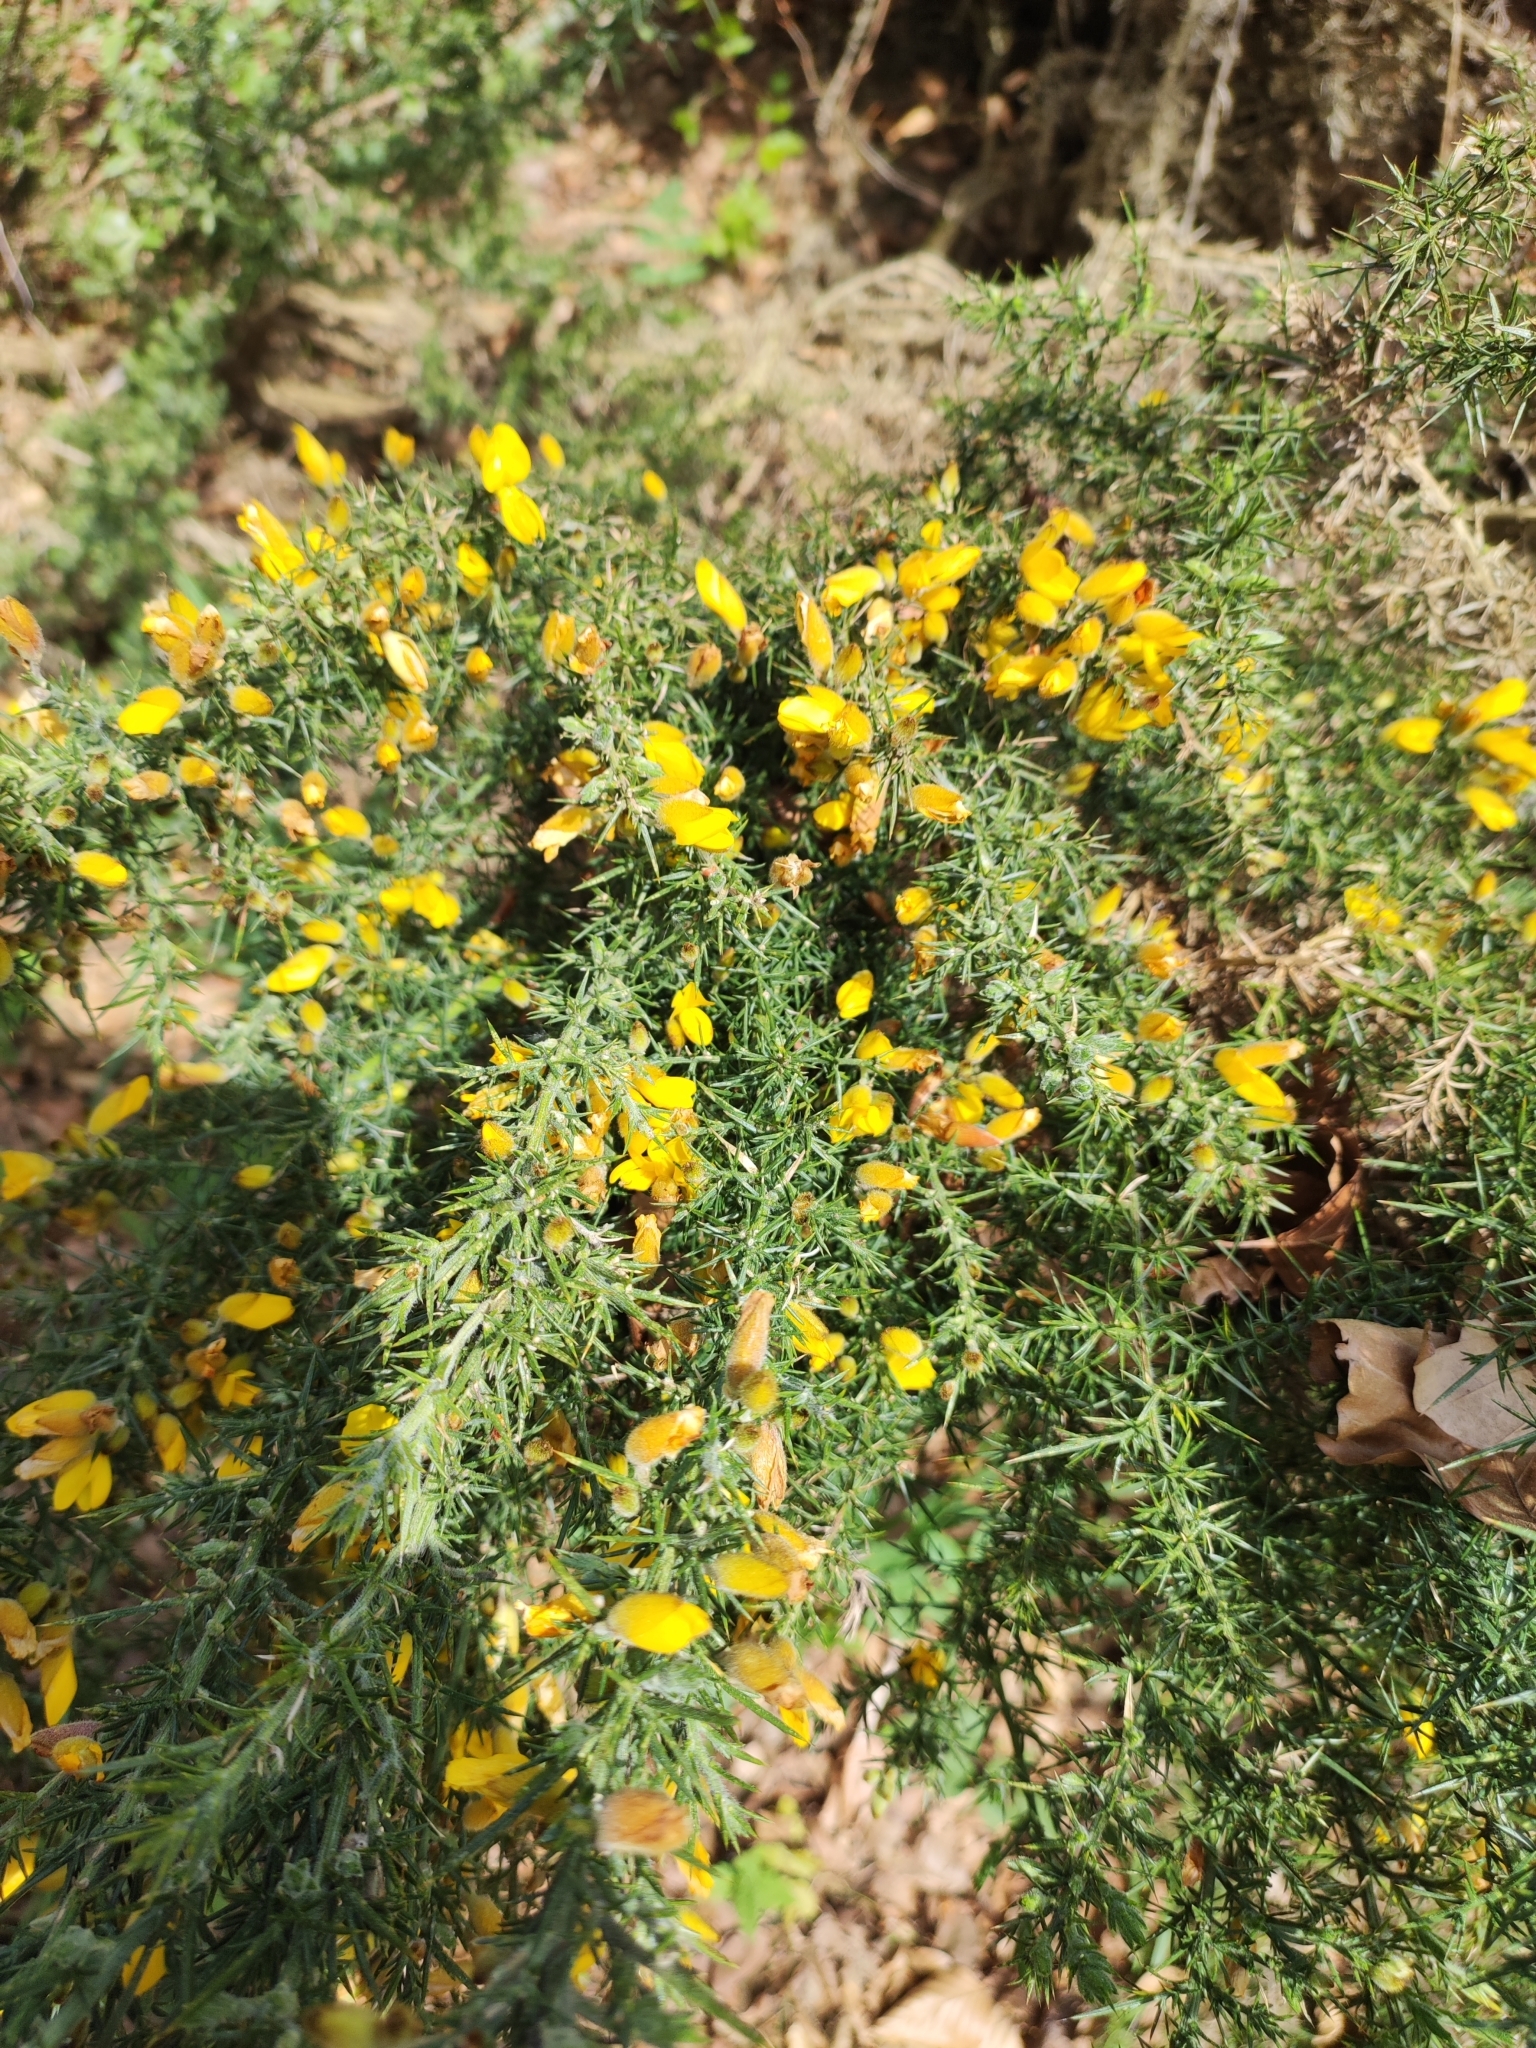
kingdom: Plantae
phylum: Tracheophyta
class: Magnoliopsida
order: Fabales
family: Fabaceae
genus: Ulex
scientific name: Ulex europaeus
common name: Common gorse
